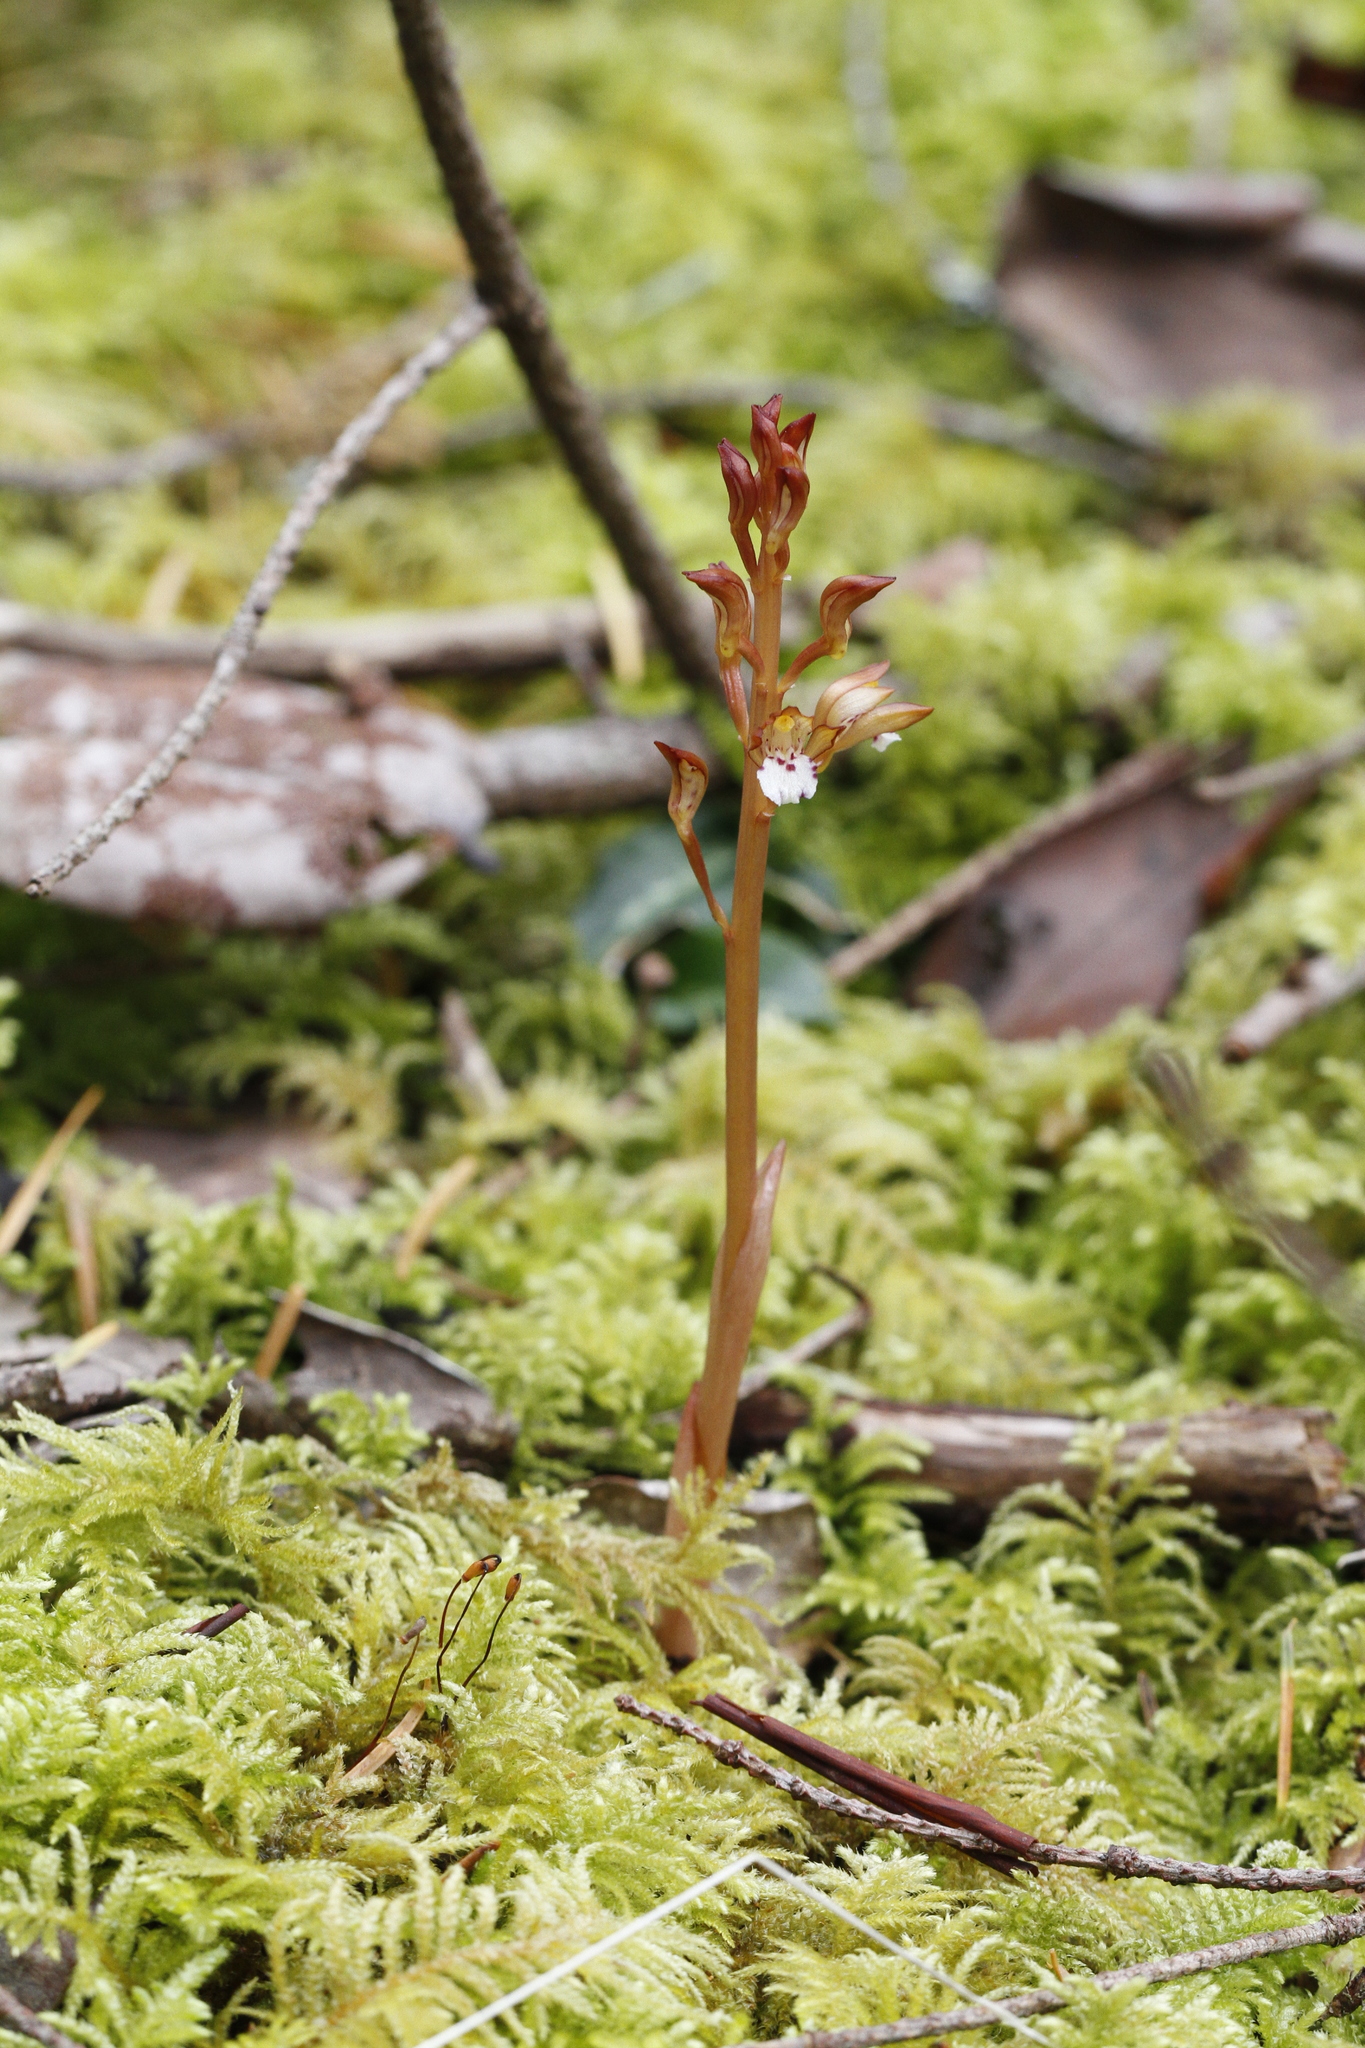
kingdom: Plantae
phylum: Tracheophyta
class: Liliopsida
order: Asparagales
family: Orchidaceae
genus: Corallorhiza
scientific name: Corallorhiza maculata
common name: Spotted coralroot
